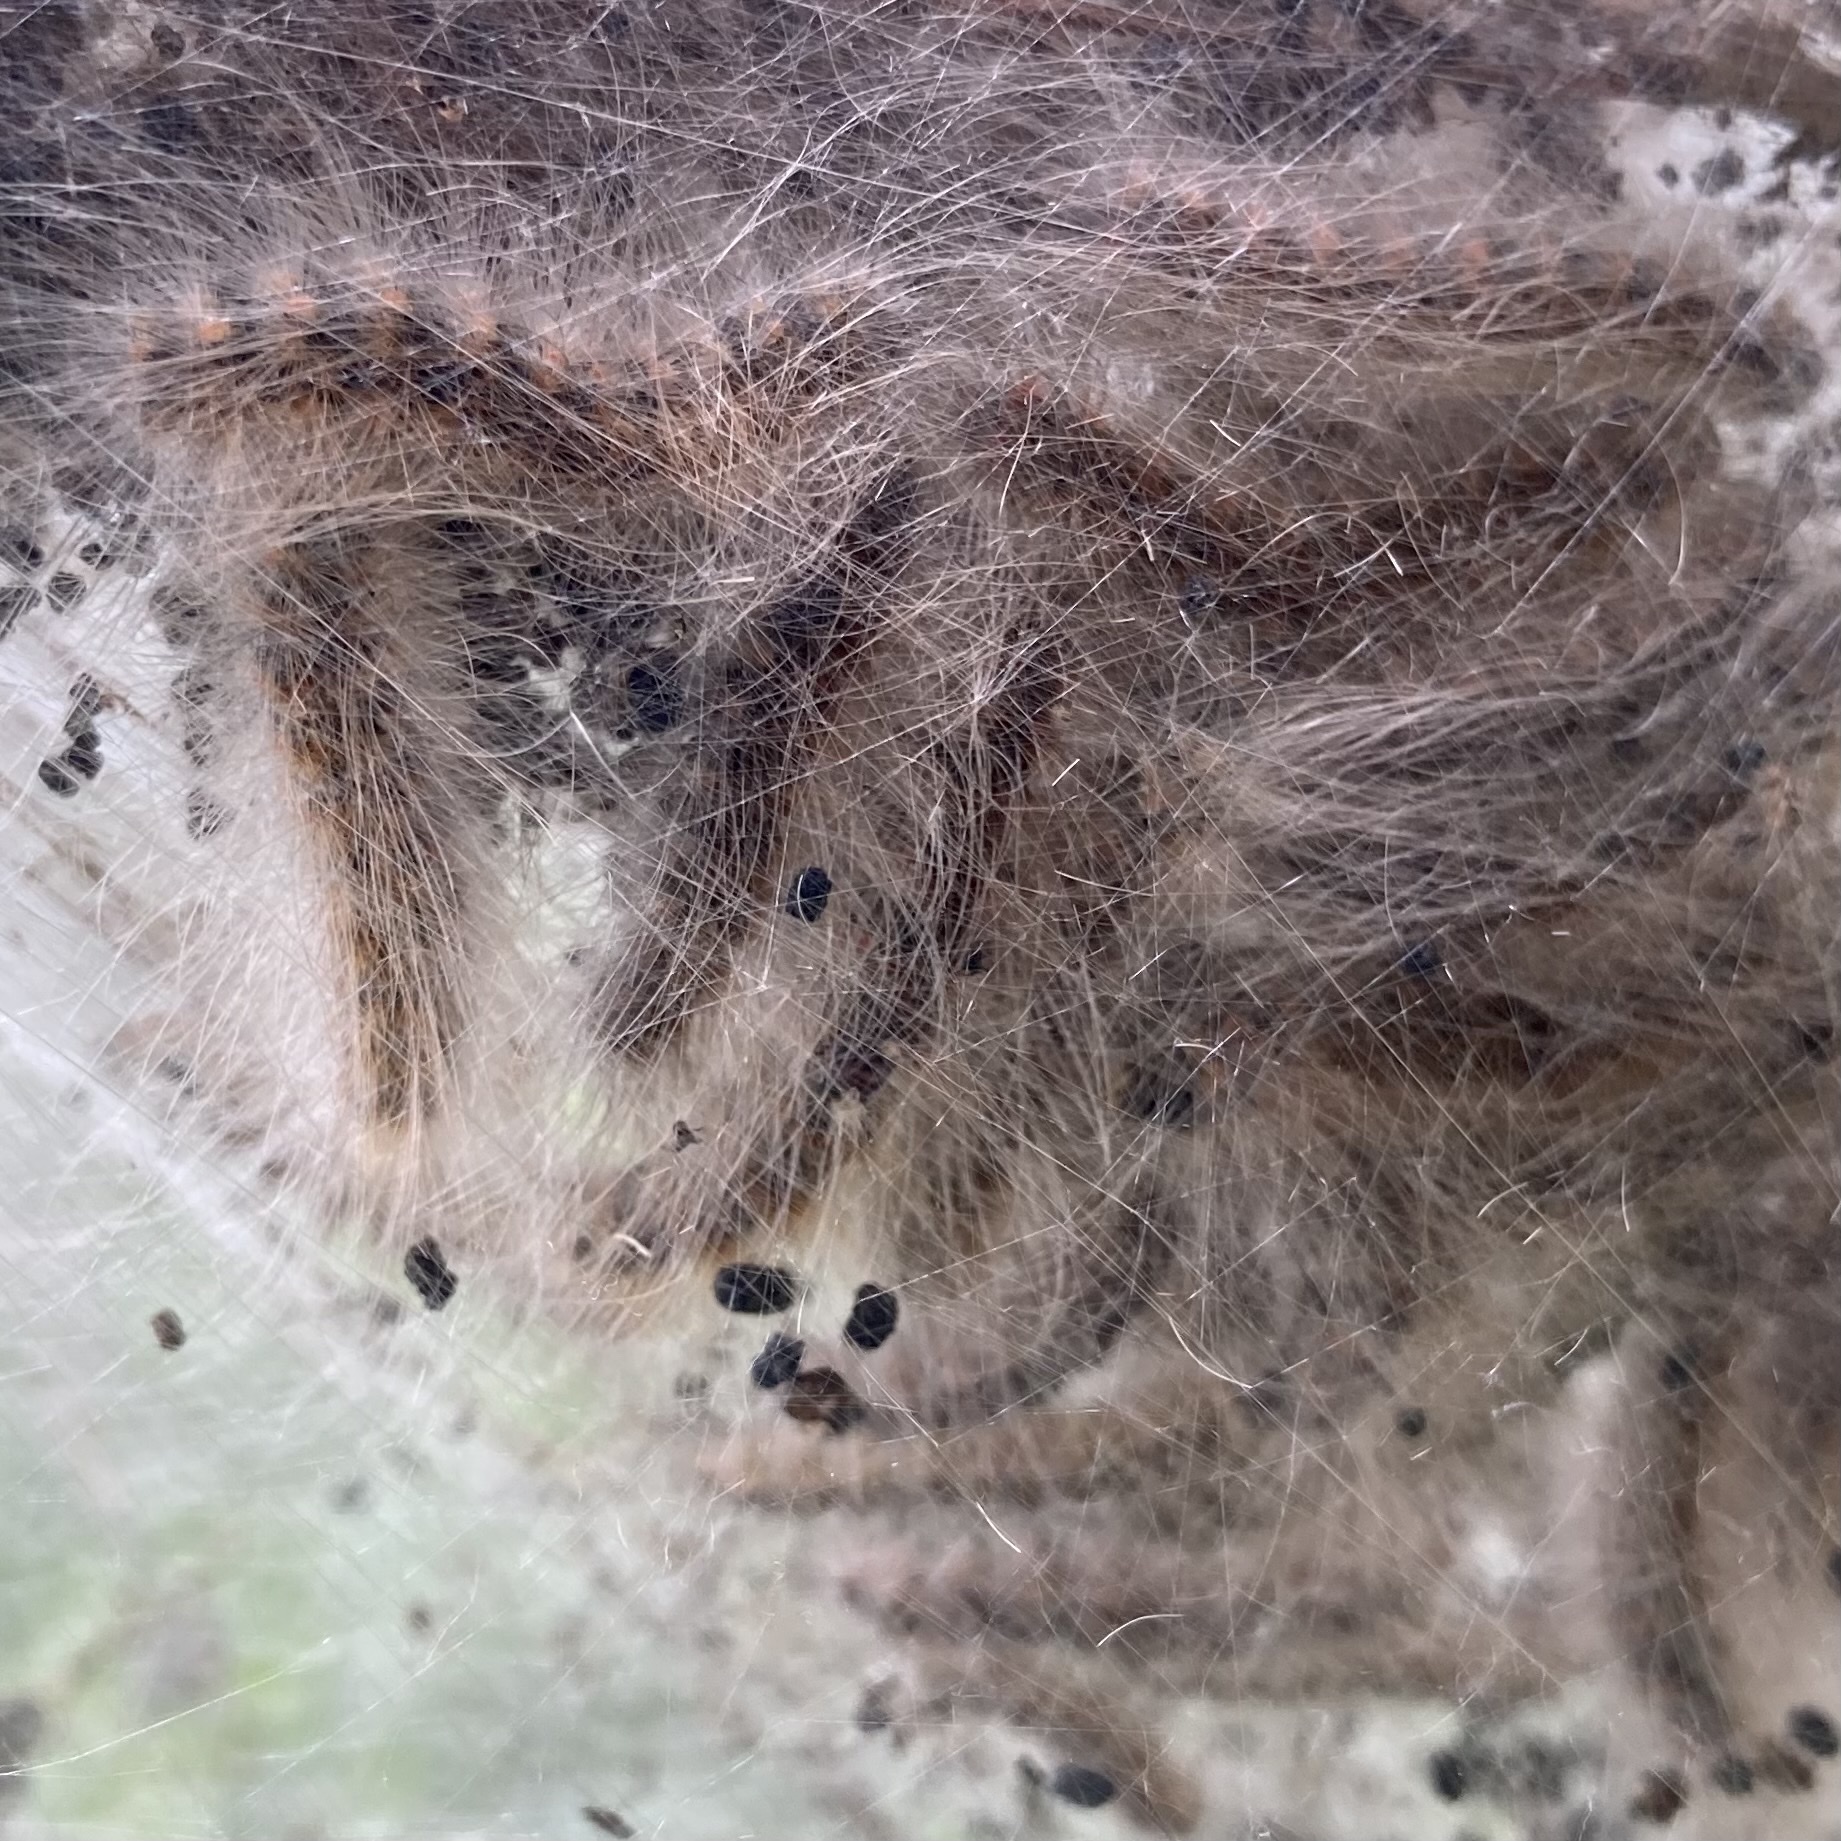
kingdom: Animalia
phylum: Arthropoda
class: Insecta
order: Lepidoptera
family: Erebidae
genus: Hyphantria
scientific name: Hyphantria cunea
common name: American white moth
